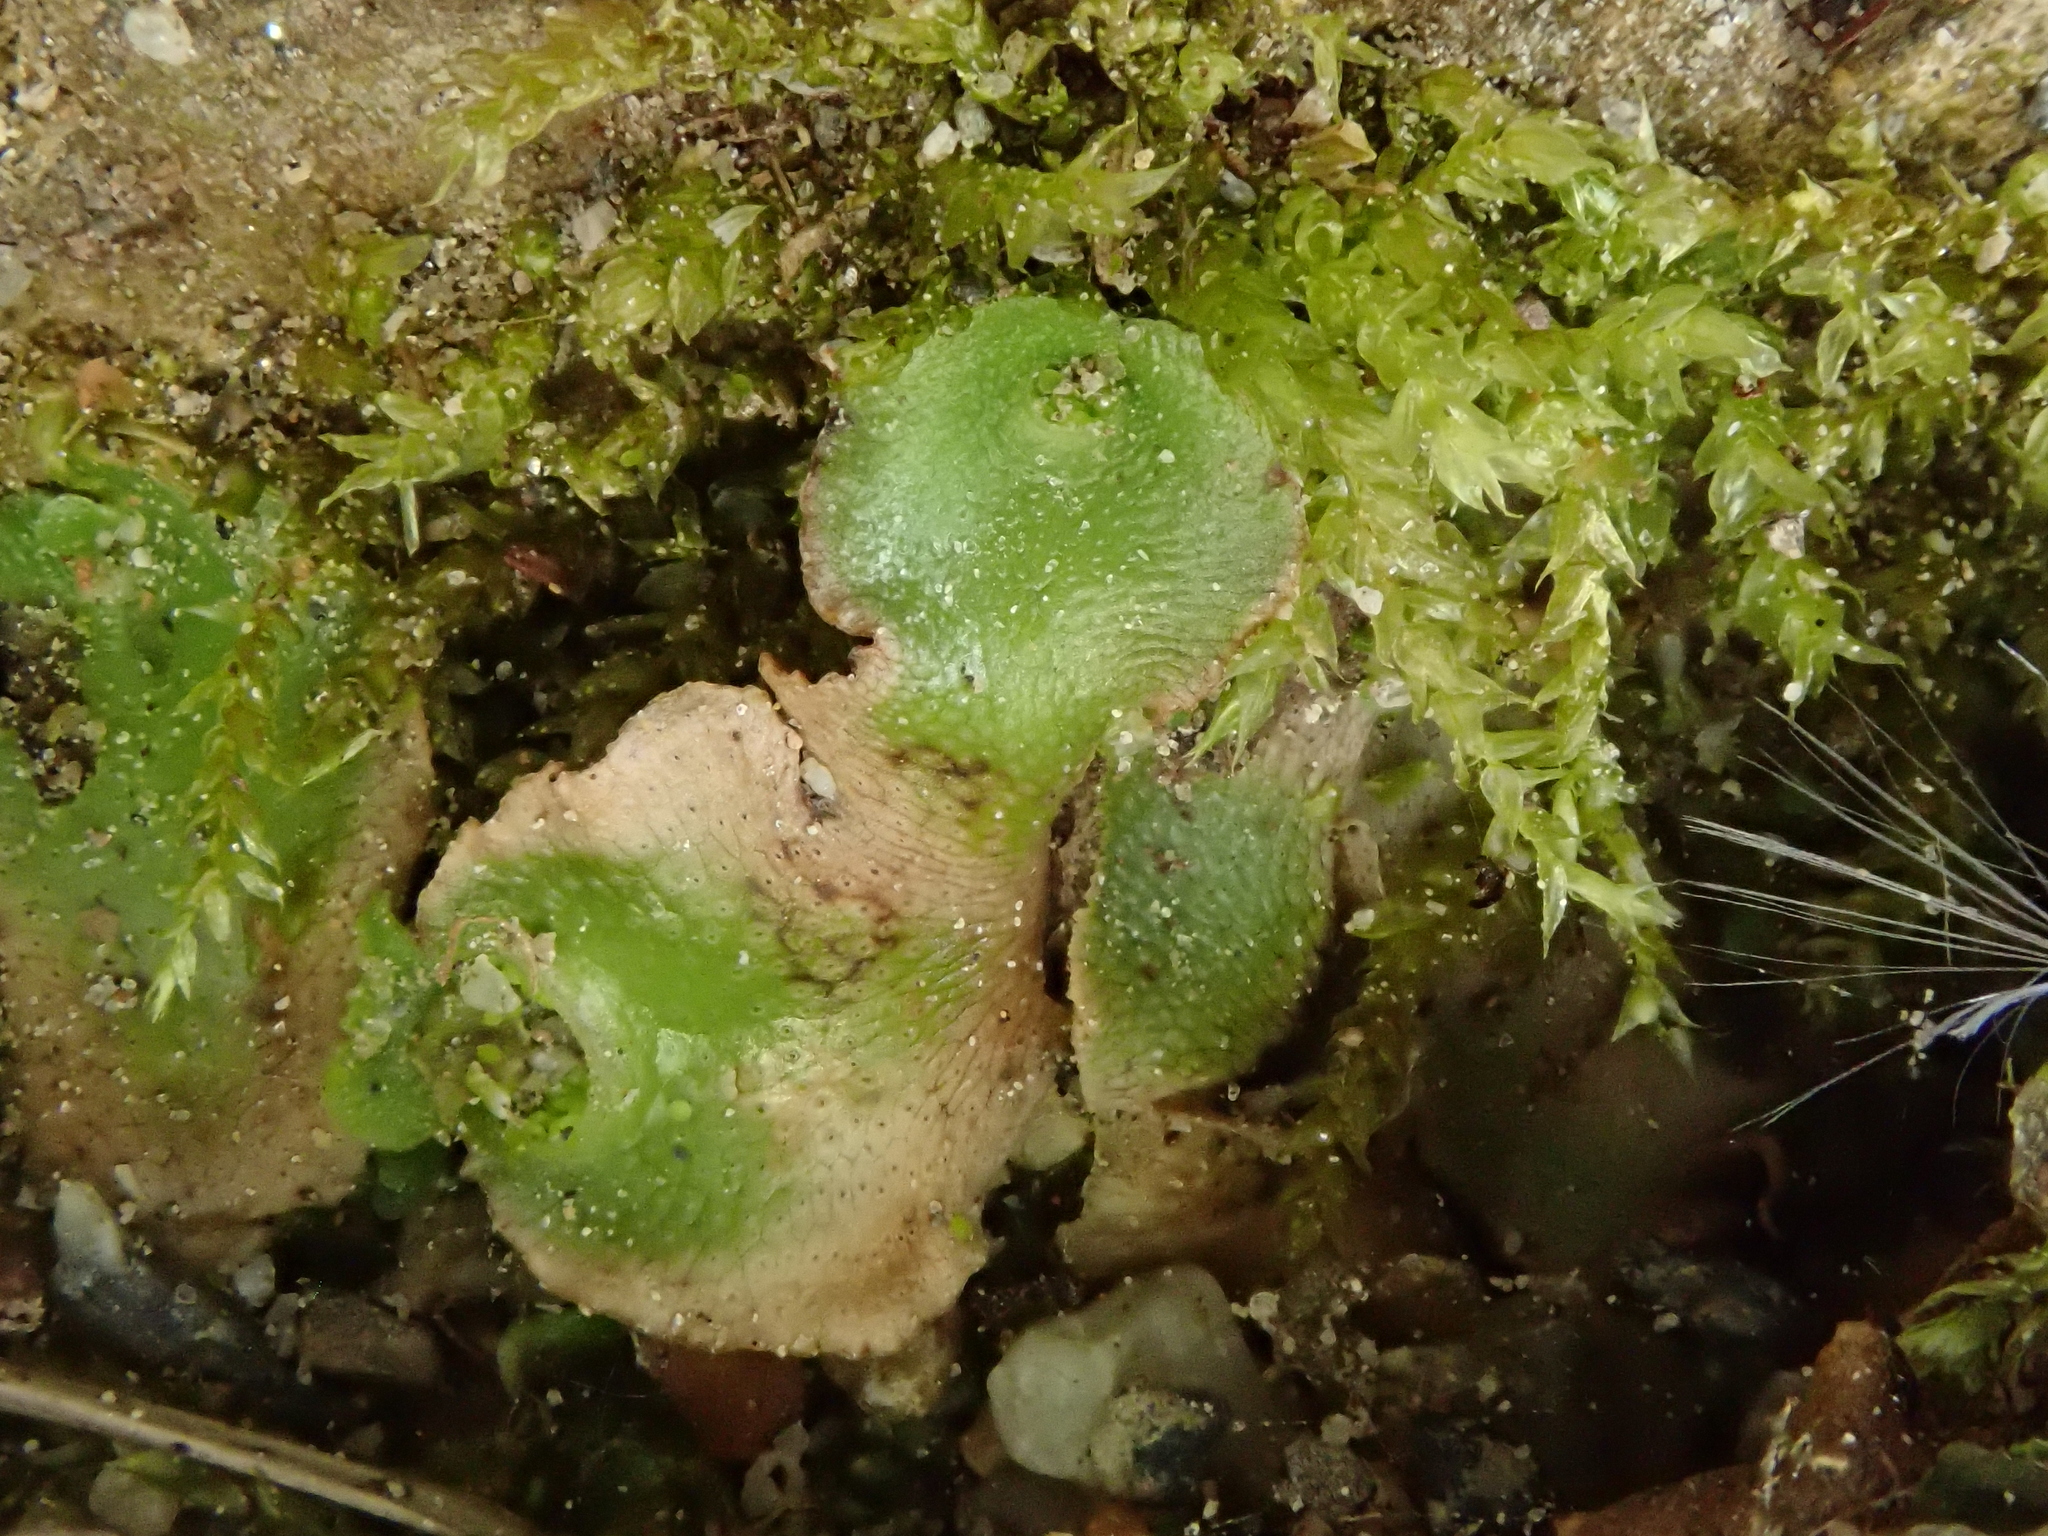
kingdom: Plantae
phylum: Marchantiophyta
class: Marchantiopsida
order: Lunulariales
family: Lunulariaceae
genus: Lunularia
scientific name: Lunularia cruciata
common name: Crescent-cup liverwort
